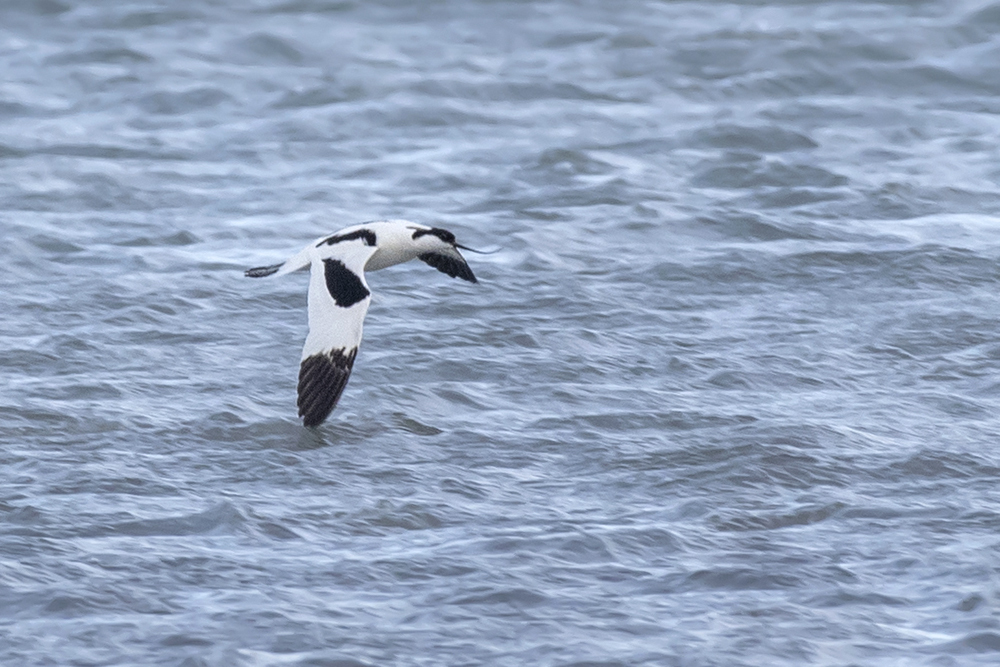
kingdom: Animalia
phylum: Chordata
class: Aves
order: Charadriiformes
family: Recurvirostridae
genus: Recurvirostra
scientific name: Recurvirostra avosetta
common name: Pied avocet
